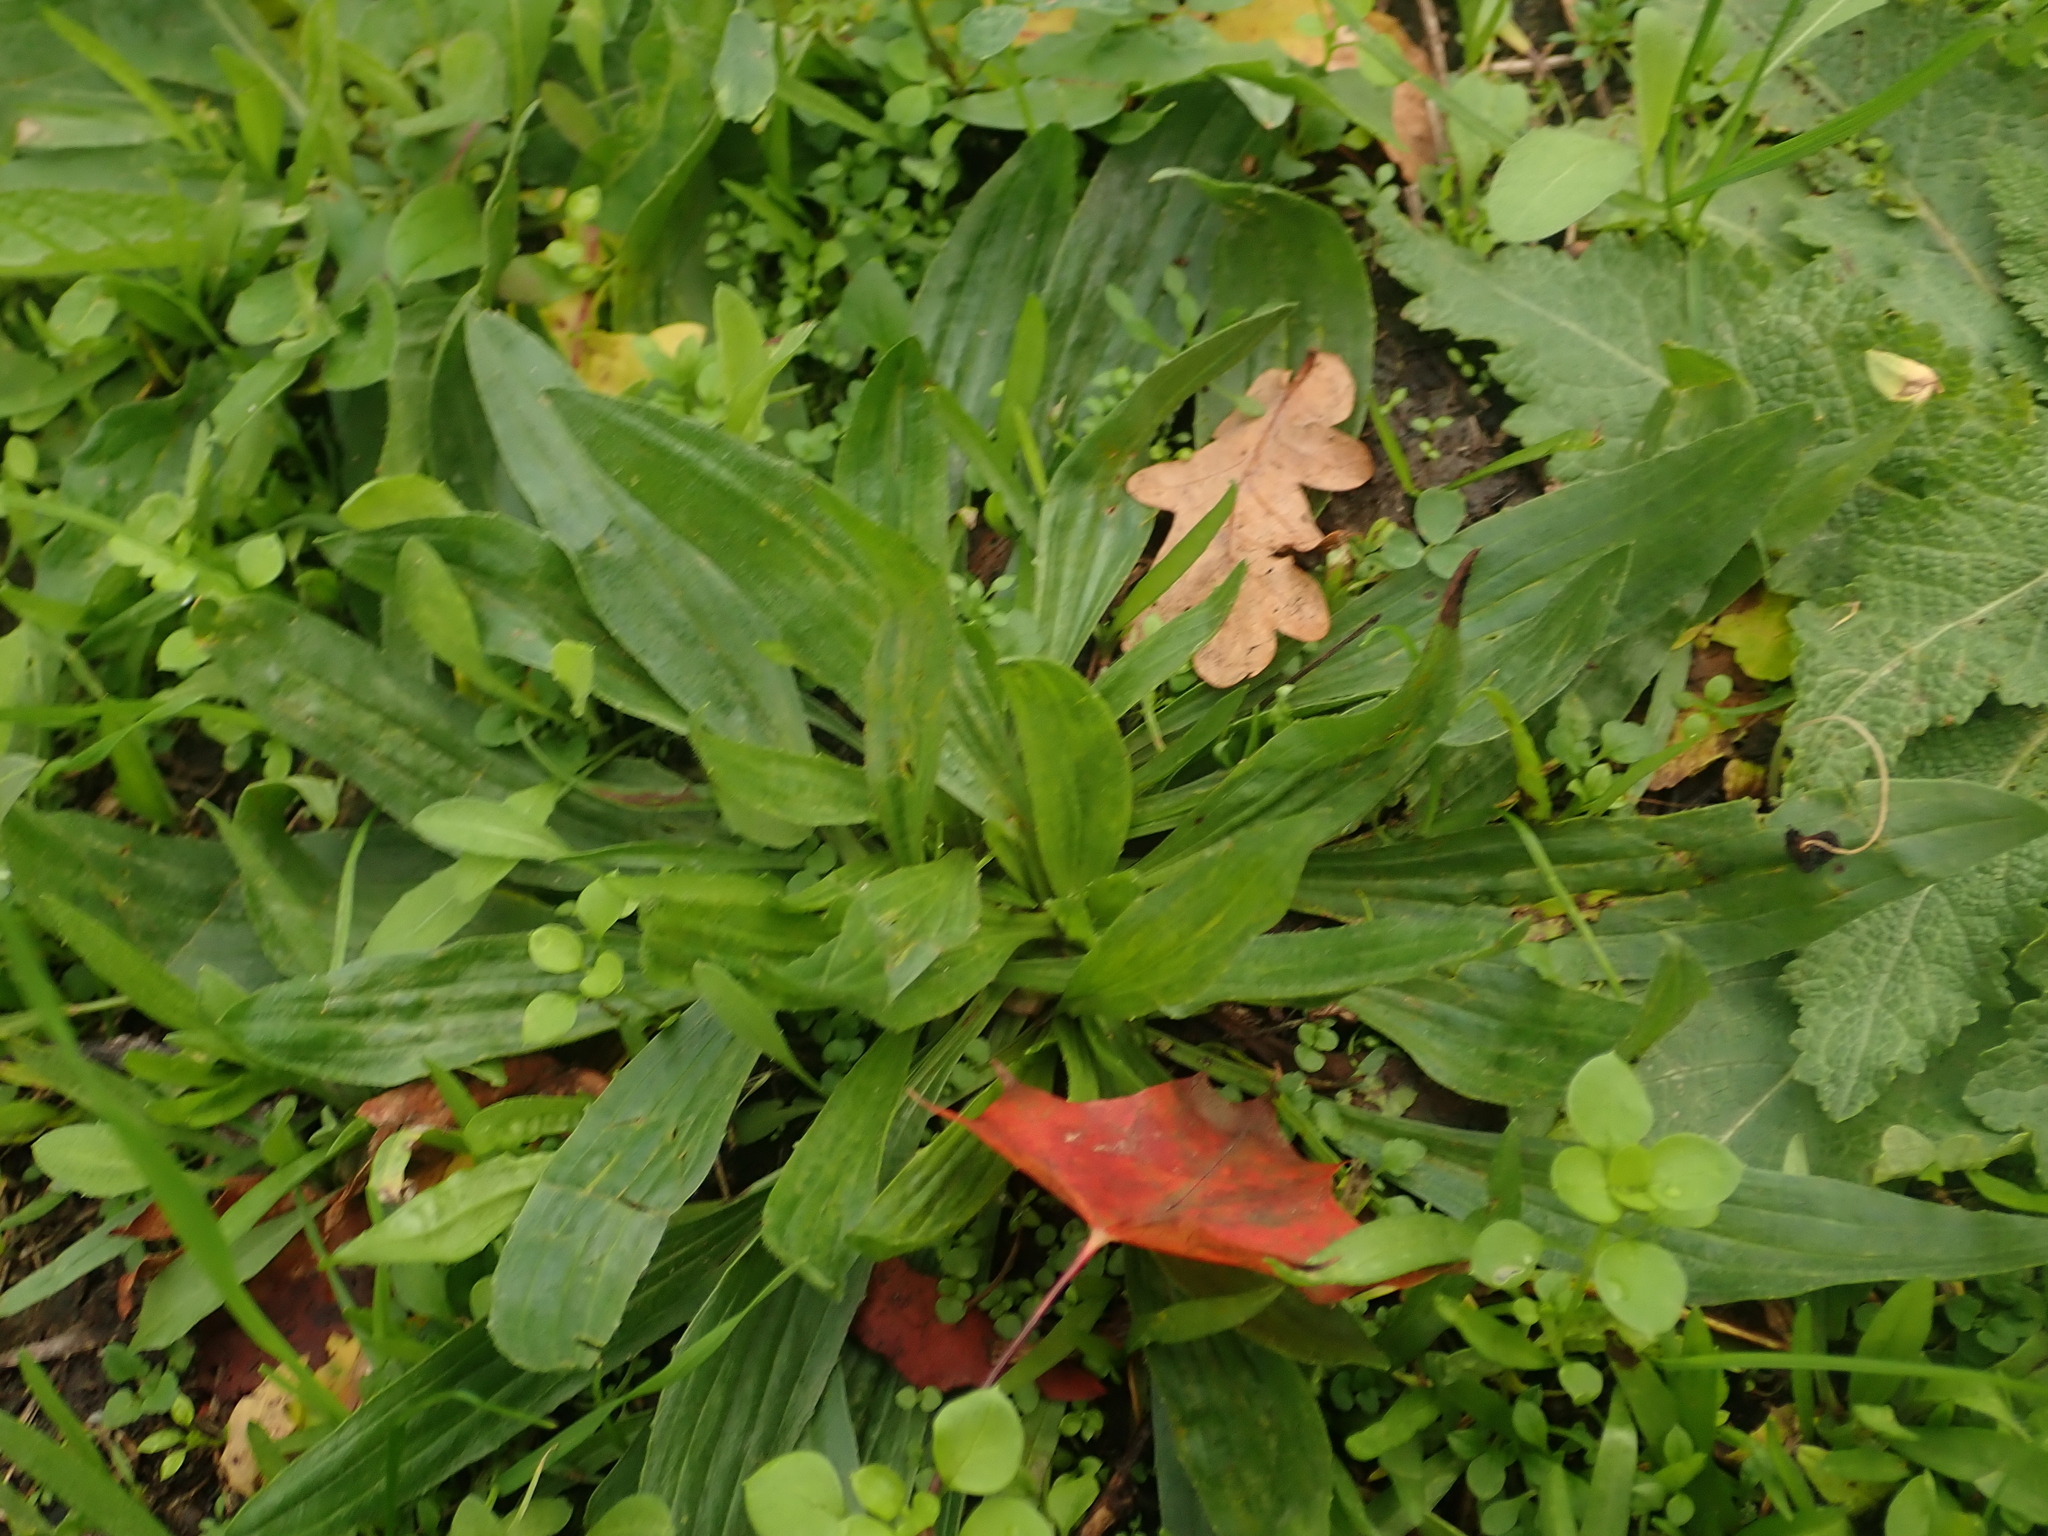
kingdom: Plantae
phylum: Tracheophyta
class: Magnoliopsida
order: Lamiales
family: Plantaginaceae
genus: Plantago
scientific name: Plantago lanceolata
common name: Ribwort plantain
